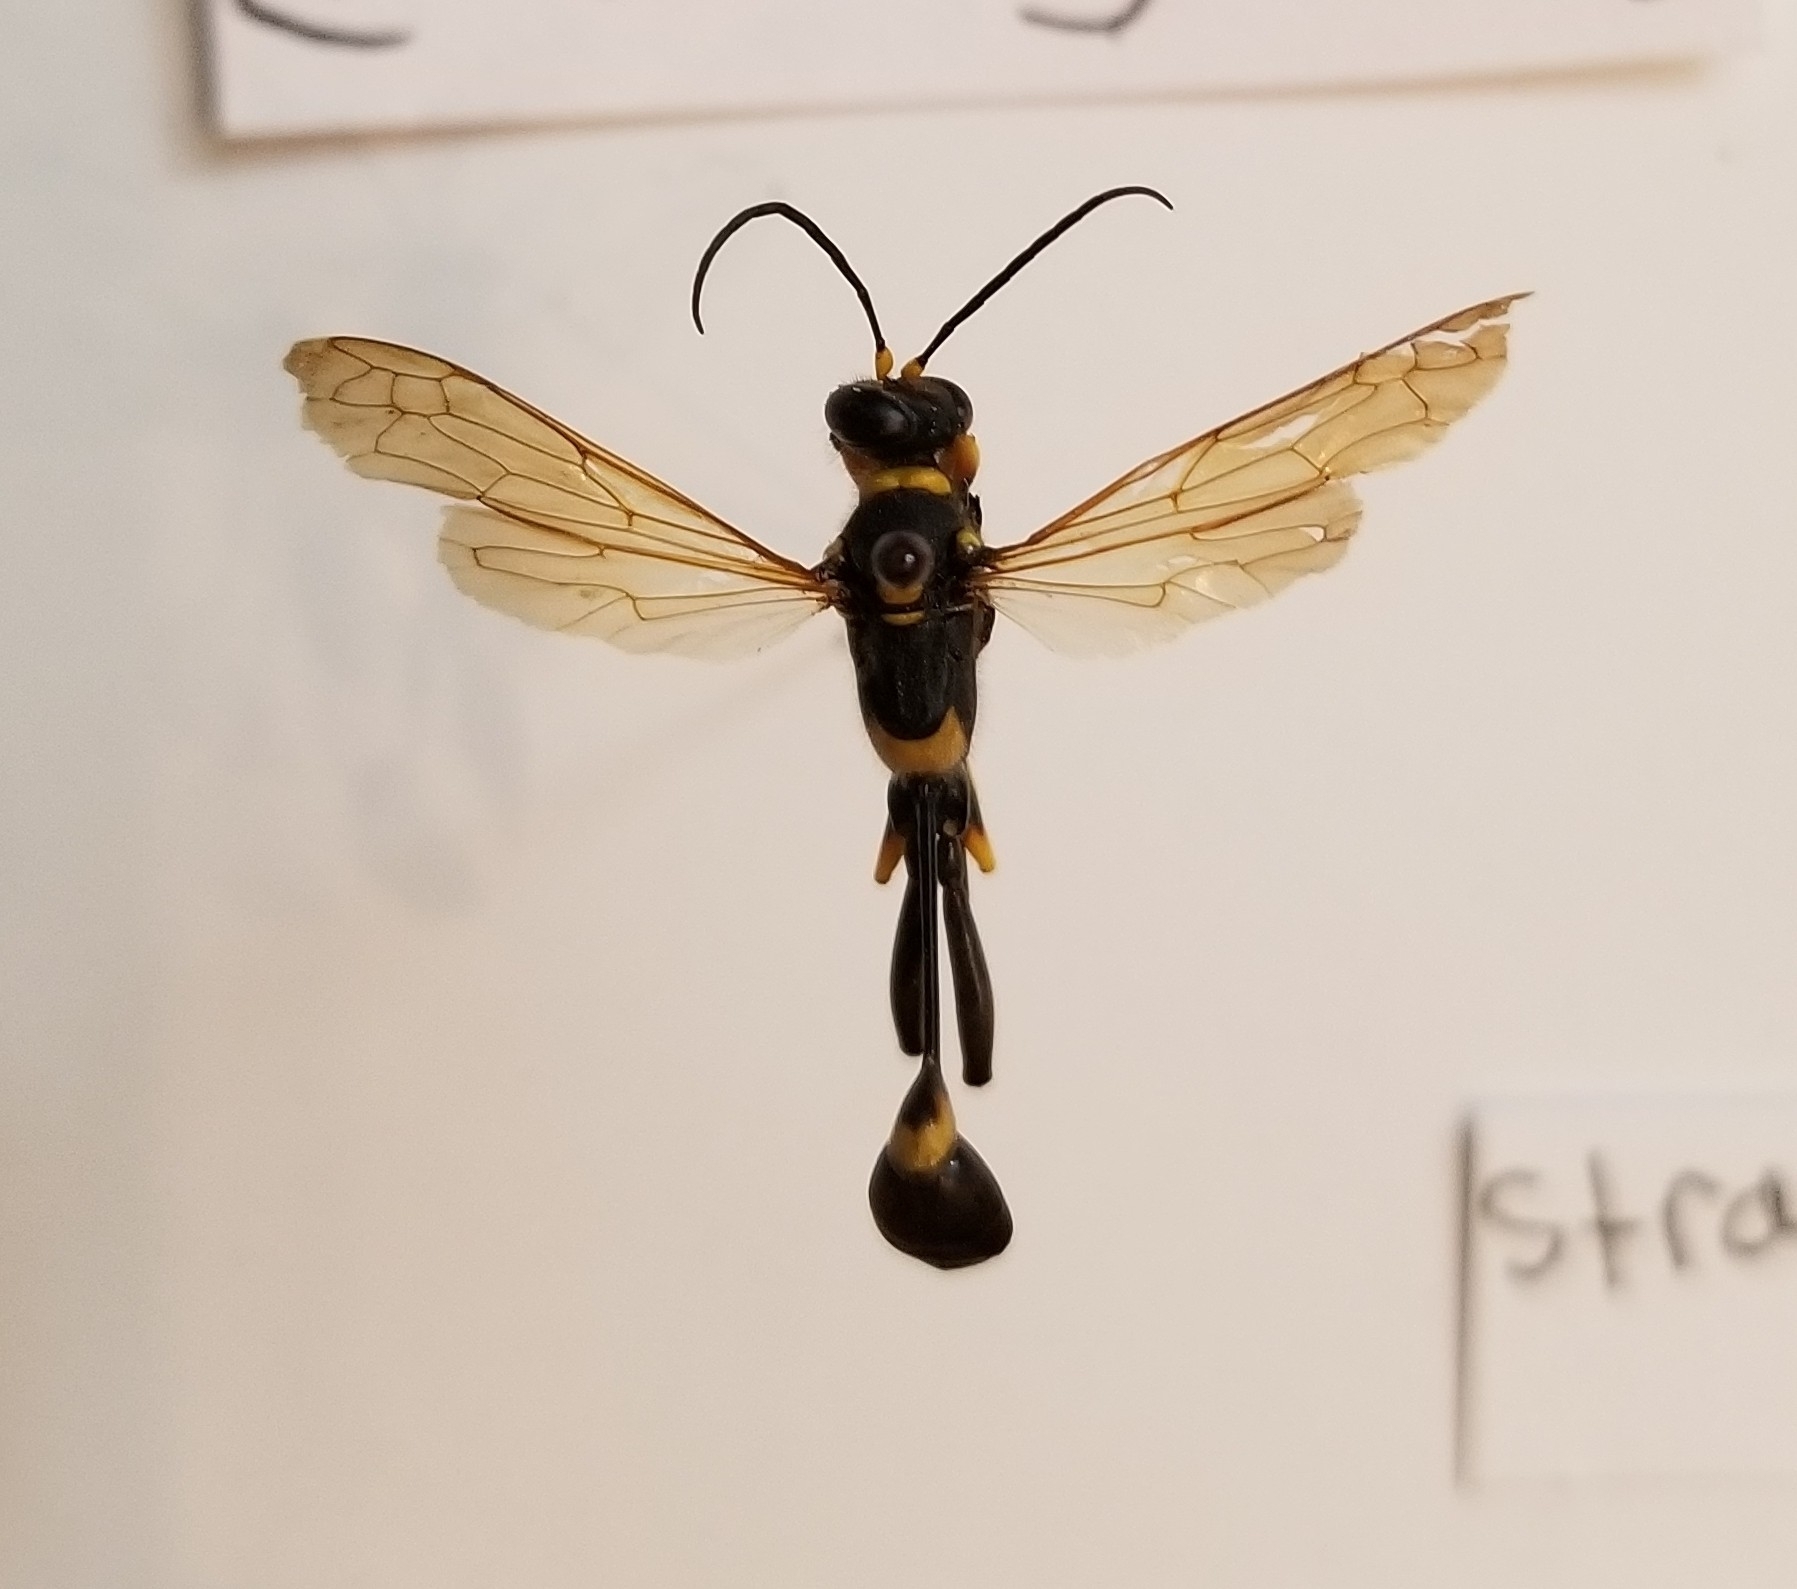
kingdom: Animalia
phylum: Arthropoda
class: Insecta
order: Hymenoptera
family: Sphecidae
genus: Sceliphron
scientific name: Sceliphron caementarium
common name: Mud dauber
